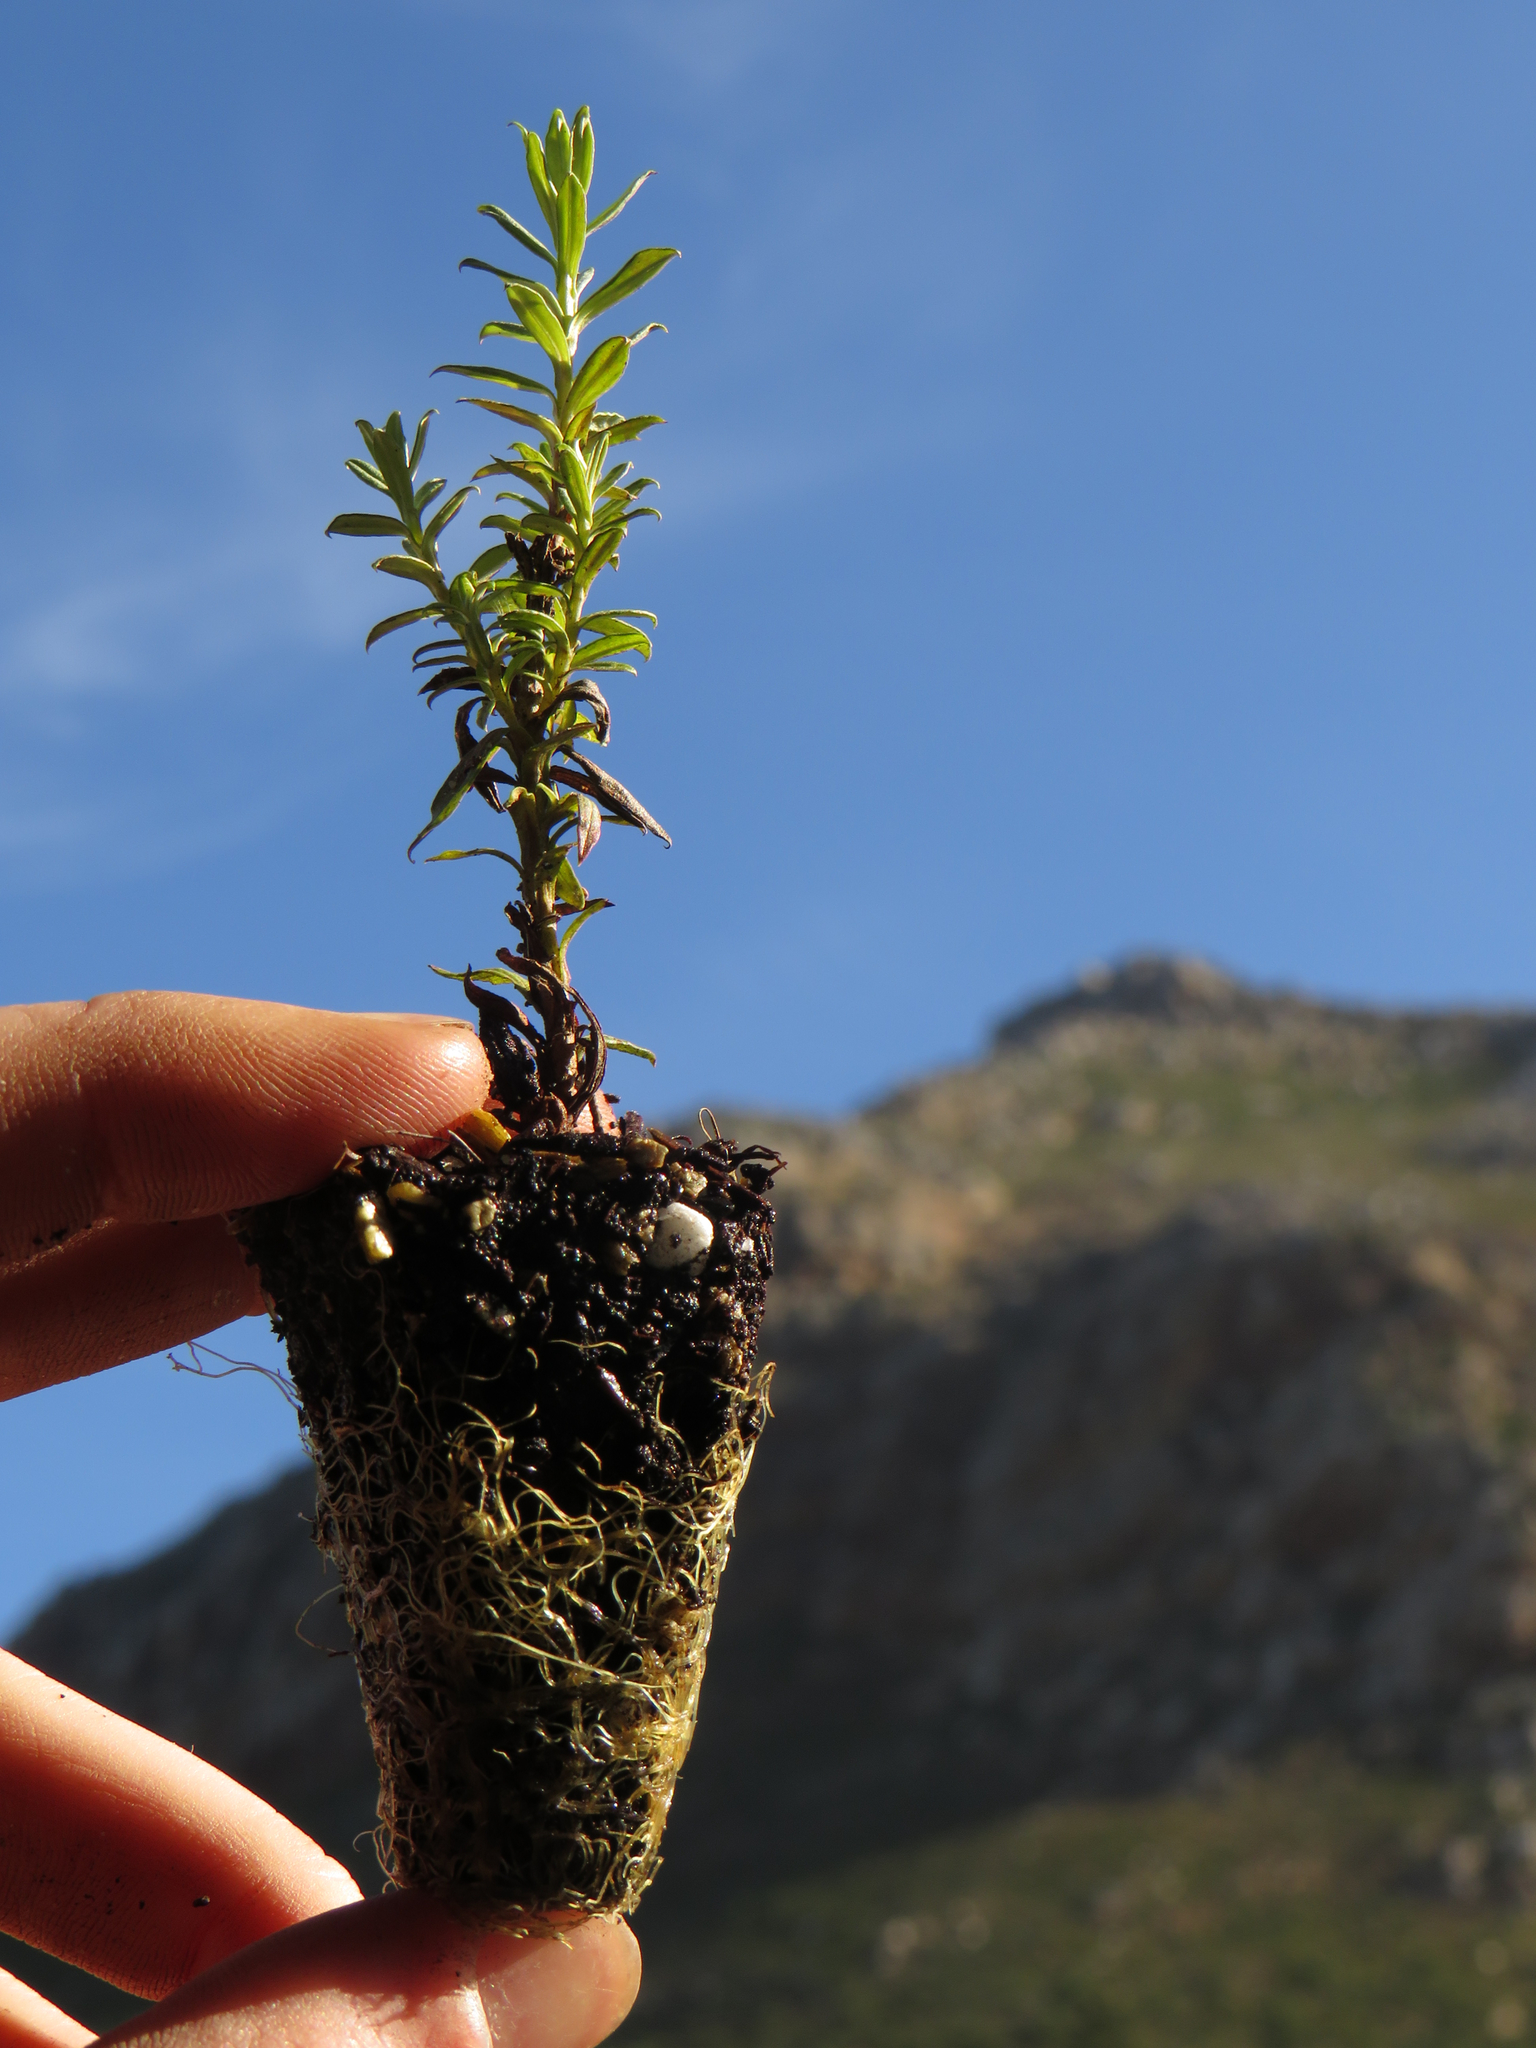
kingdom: Plantae
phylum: Tracheophyta
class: Magnoliopsida
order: Asterales
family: Asteraceae
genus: Helichrysum
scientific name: Helichrysum cymosum
